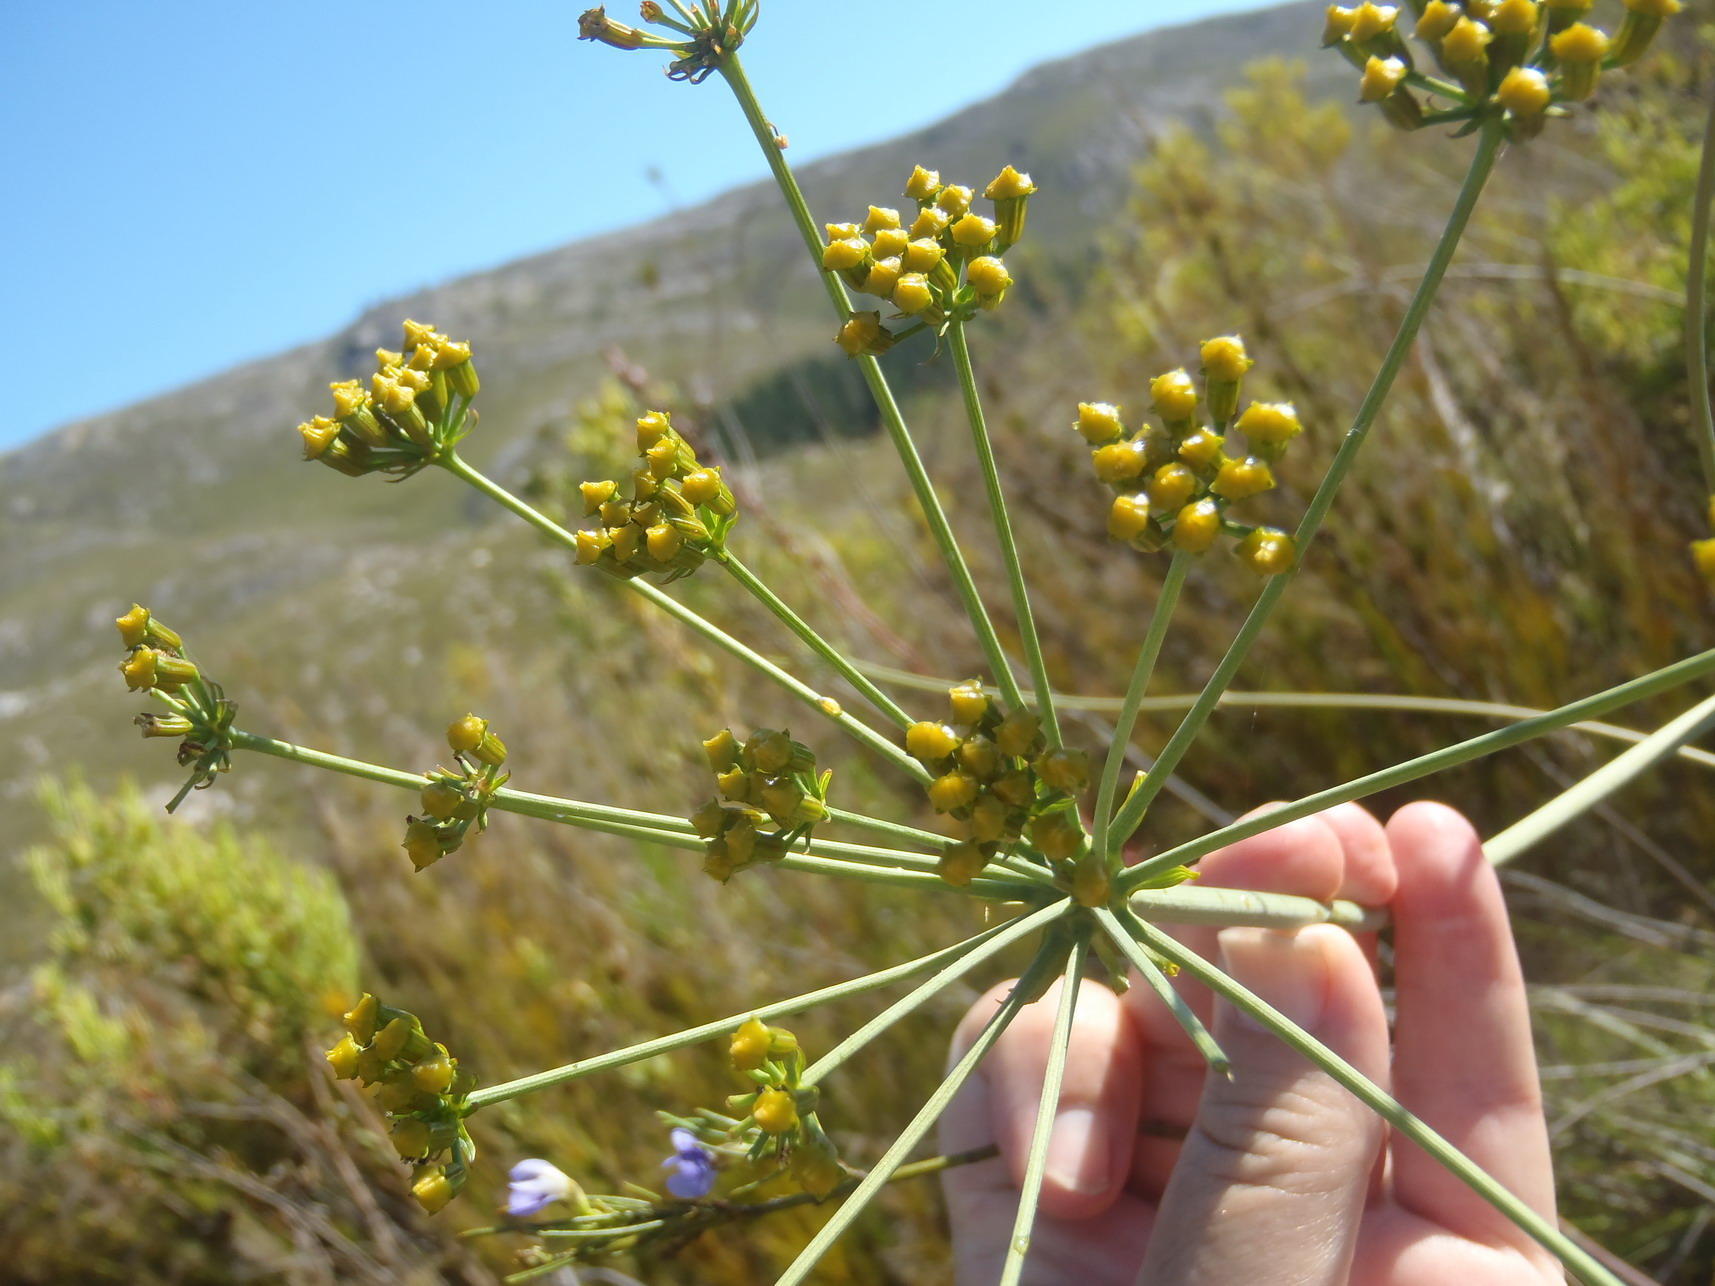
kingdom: Plantae
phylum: Tracheophyta
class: Magnoliopsida
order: Apiales
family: Apiaceae
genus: Lichtensteinia
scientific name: Lichtensteinia trifida
